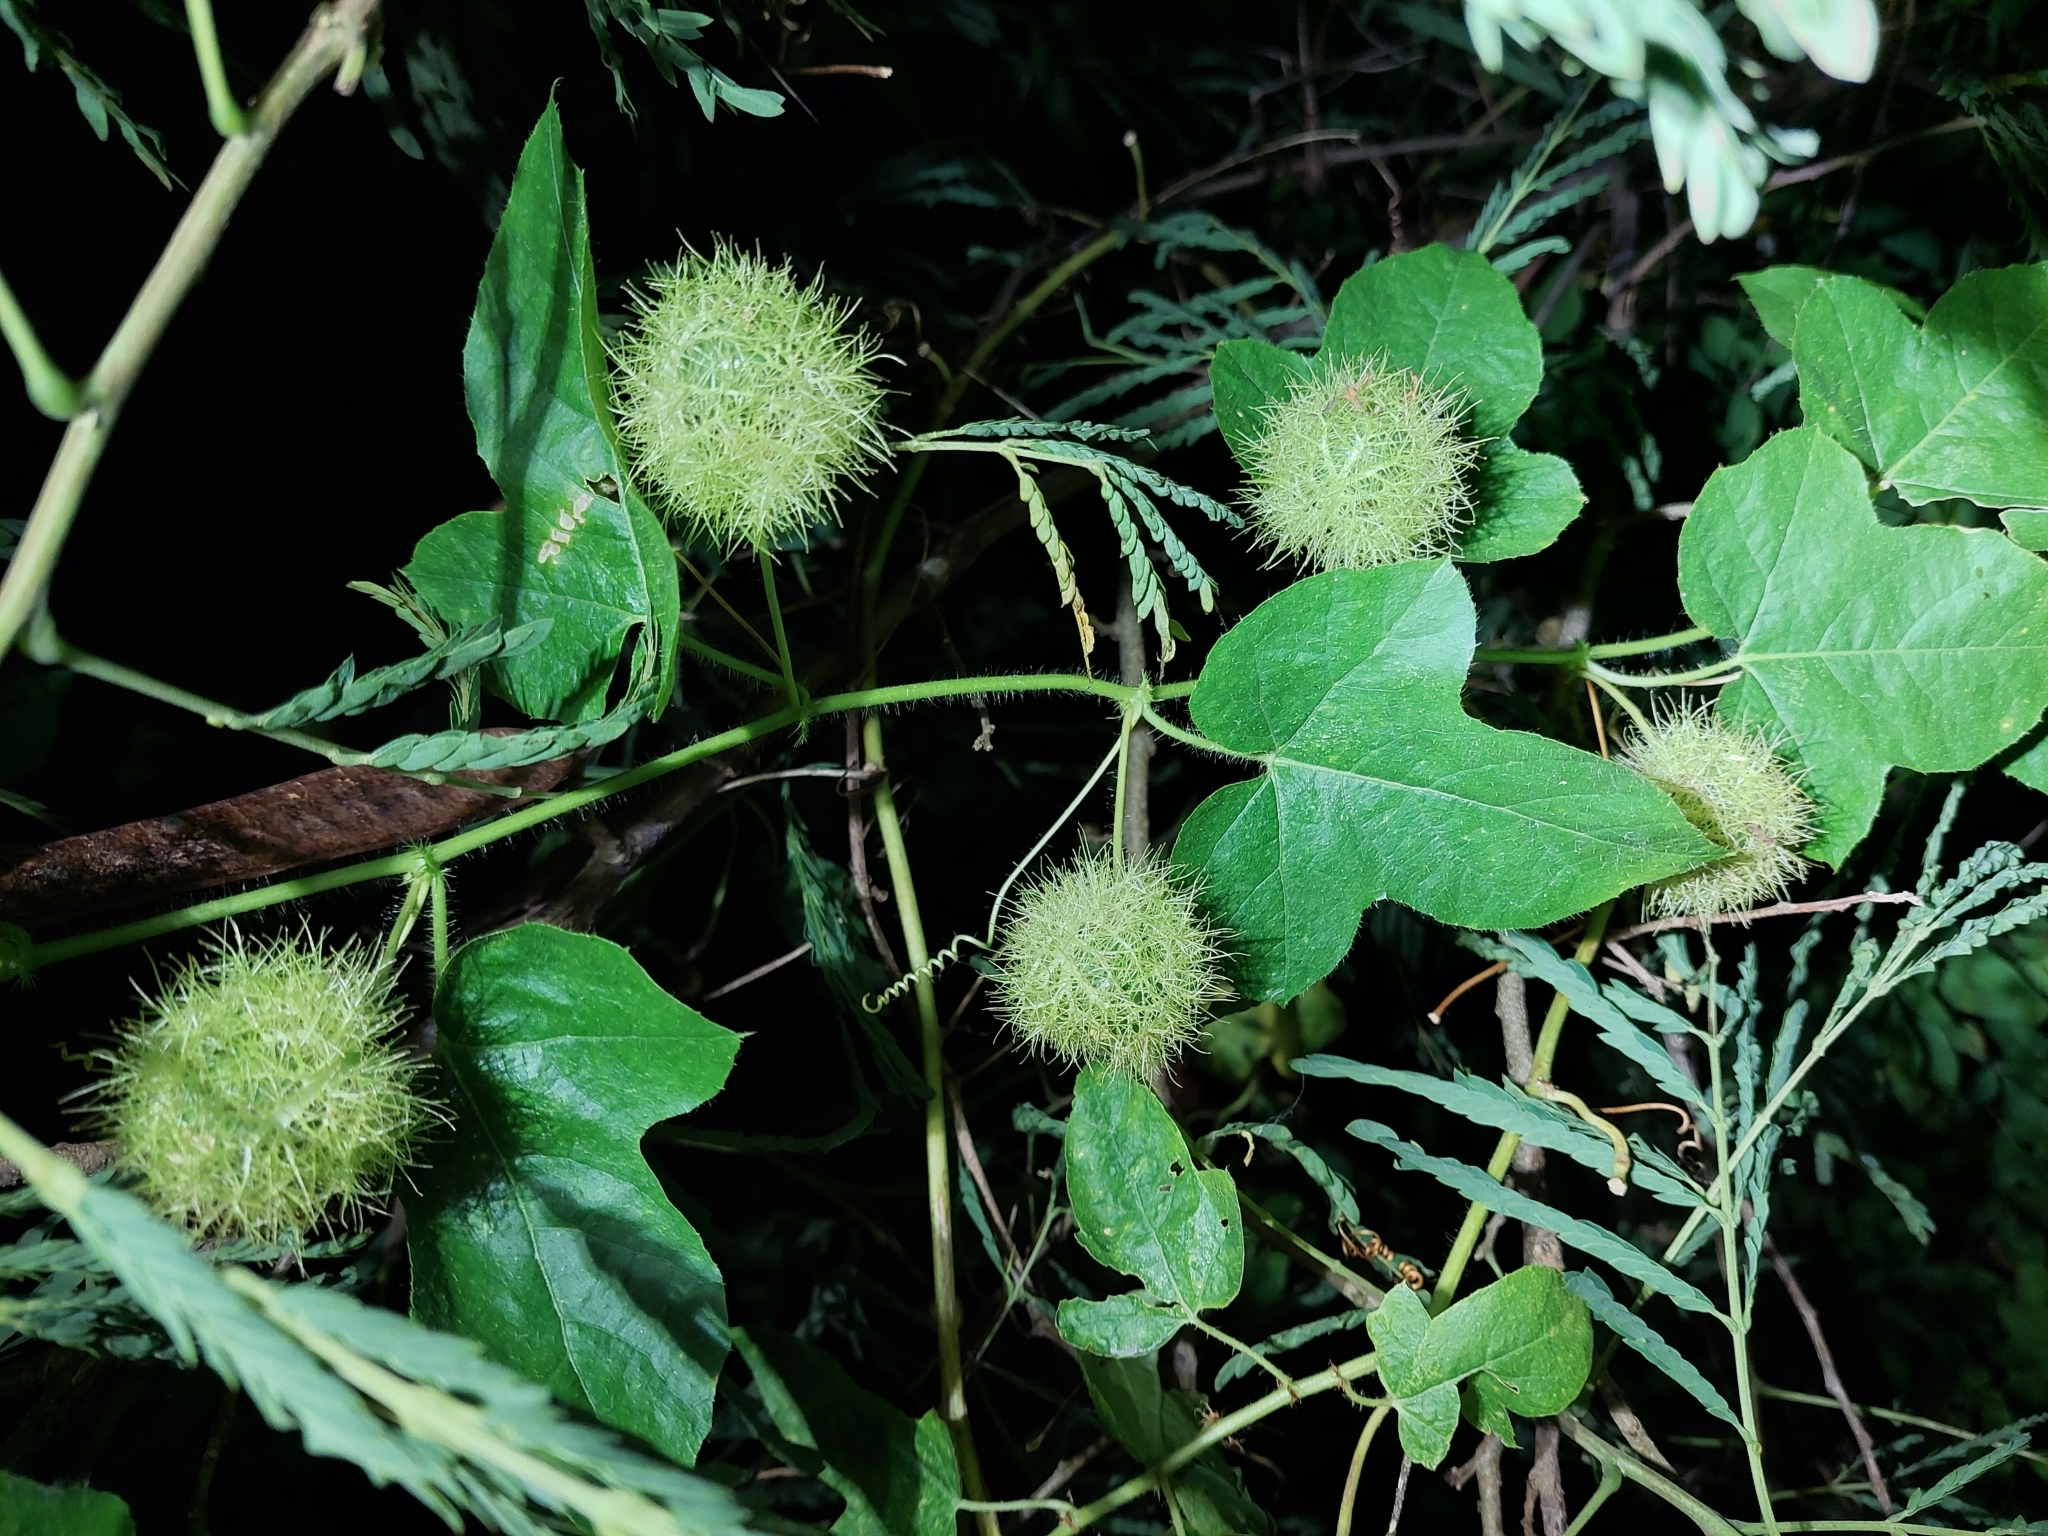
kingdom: Plantae
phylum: Tracheophyta
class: Magnoliopsida
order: Malpighiales
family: Passifloraceae
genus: Passiflora
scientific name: Passiflora vesicaria
